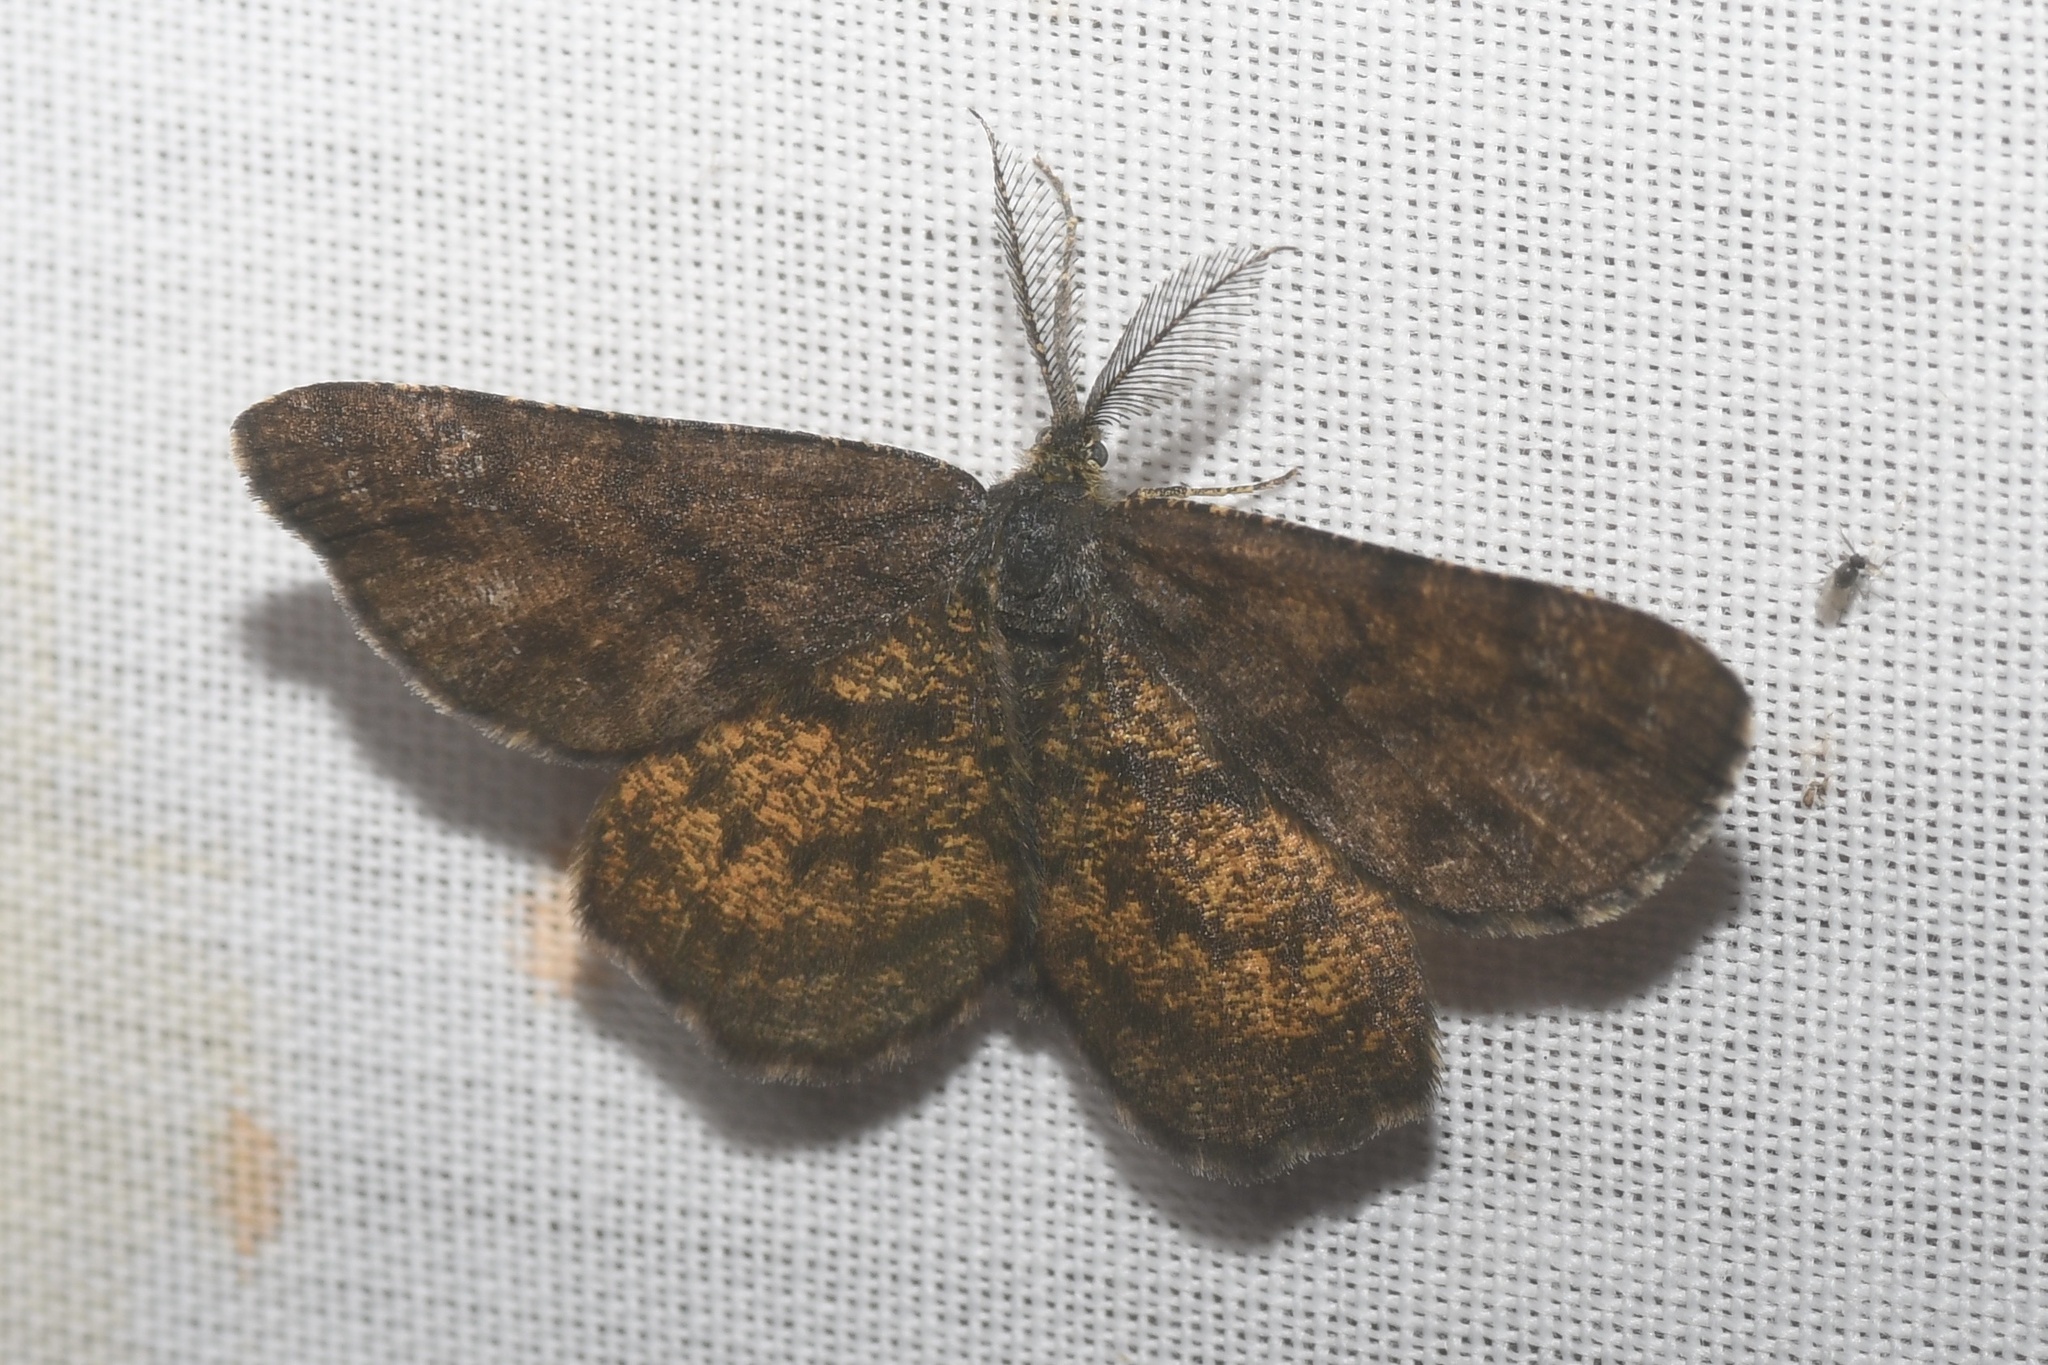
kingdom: Animalia
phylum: Arthropoda
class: Insecta
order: Lepidoptera
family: Geometridae
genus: Ematurga
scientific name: Ematurga amitaria
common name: Cranberry spanworm moth
